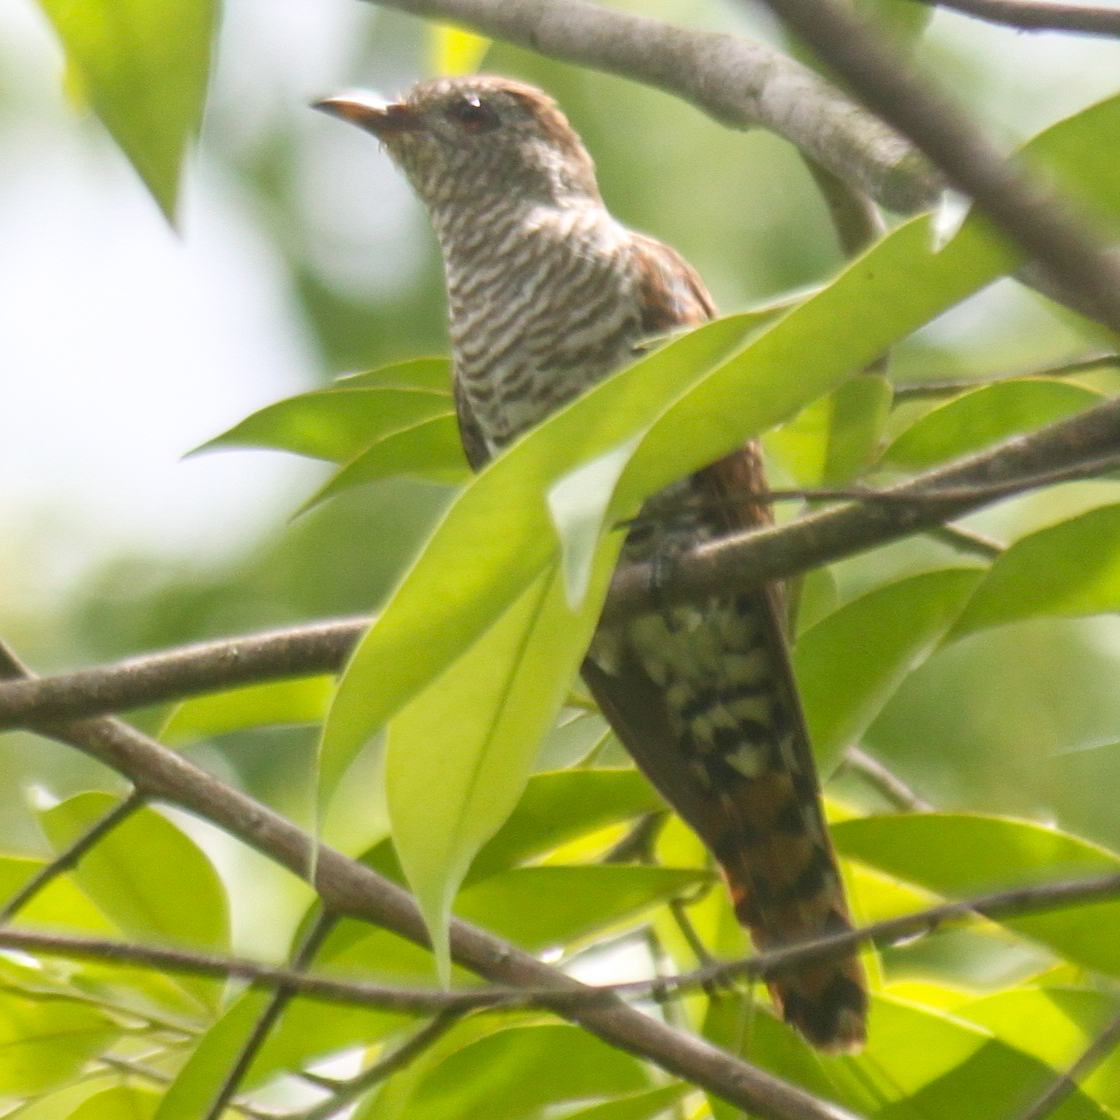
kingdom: Animalia
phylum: Chordata
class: Aves
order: Cuculiformes
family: Cuculidae
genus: Chrysococcyx
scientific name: Chrysococcyx xanthorhynchus
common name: Violet cuckoo
